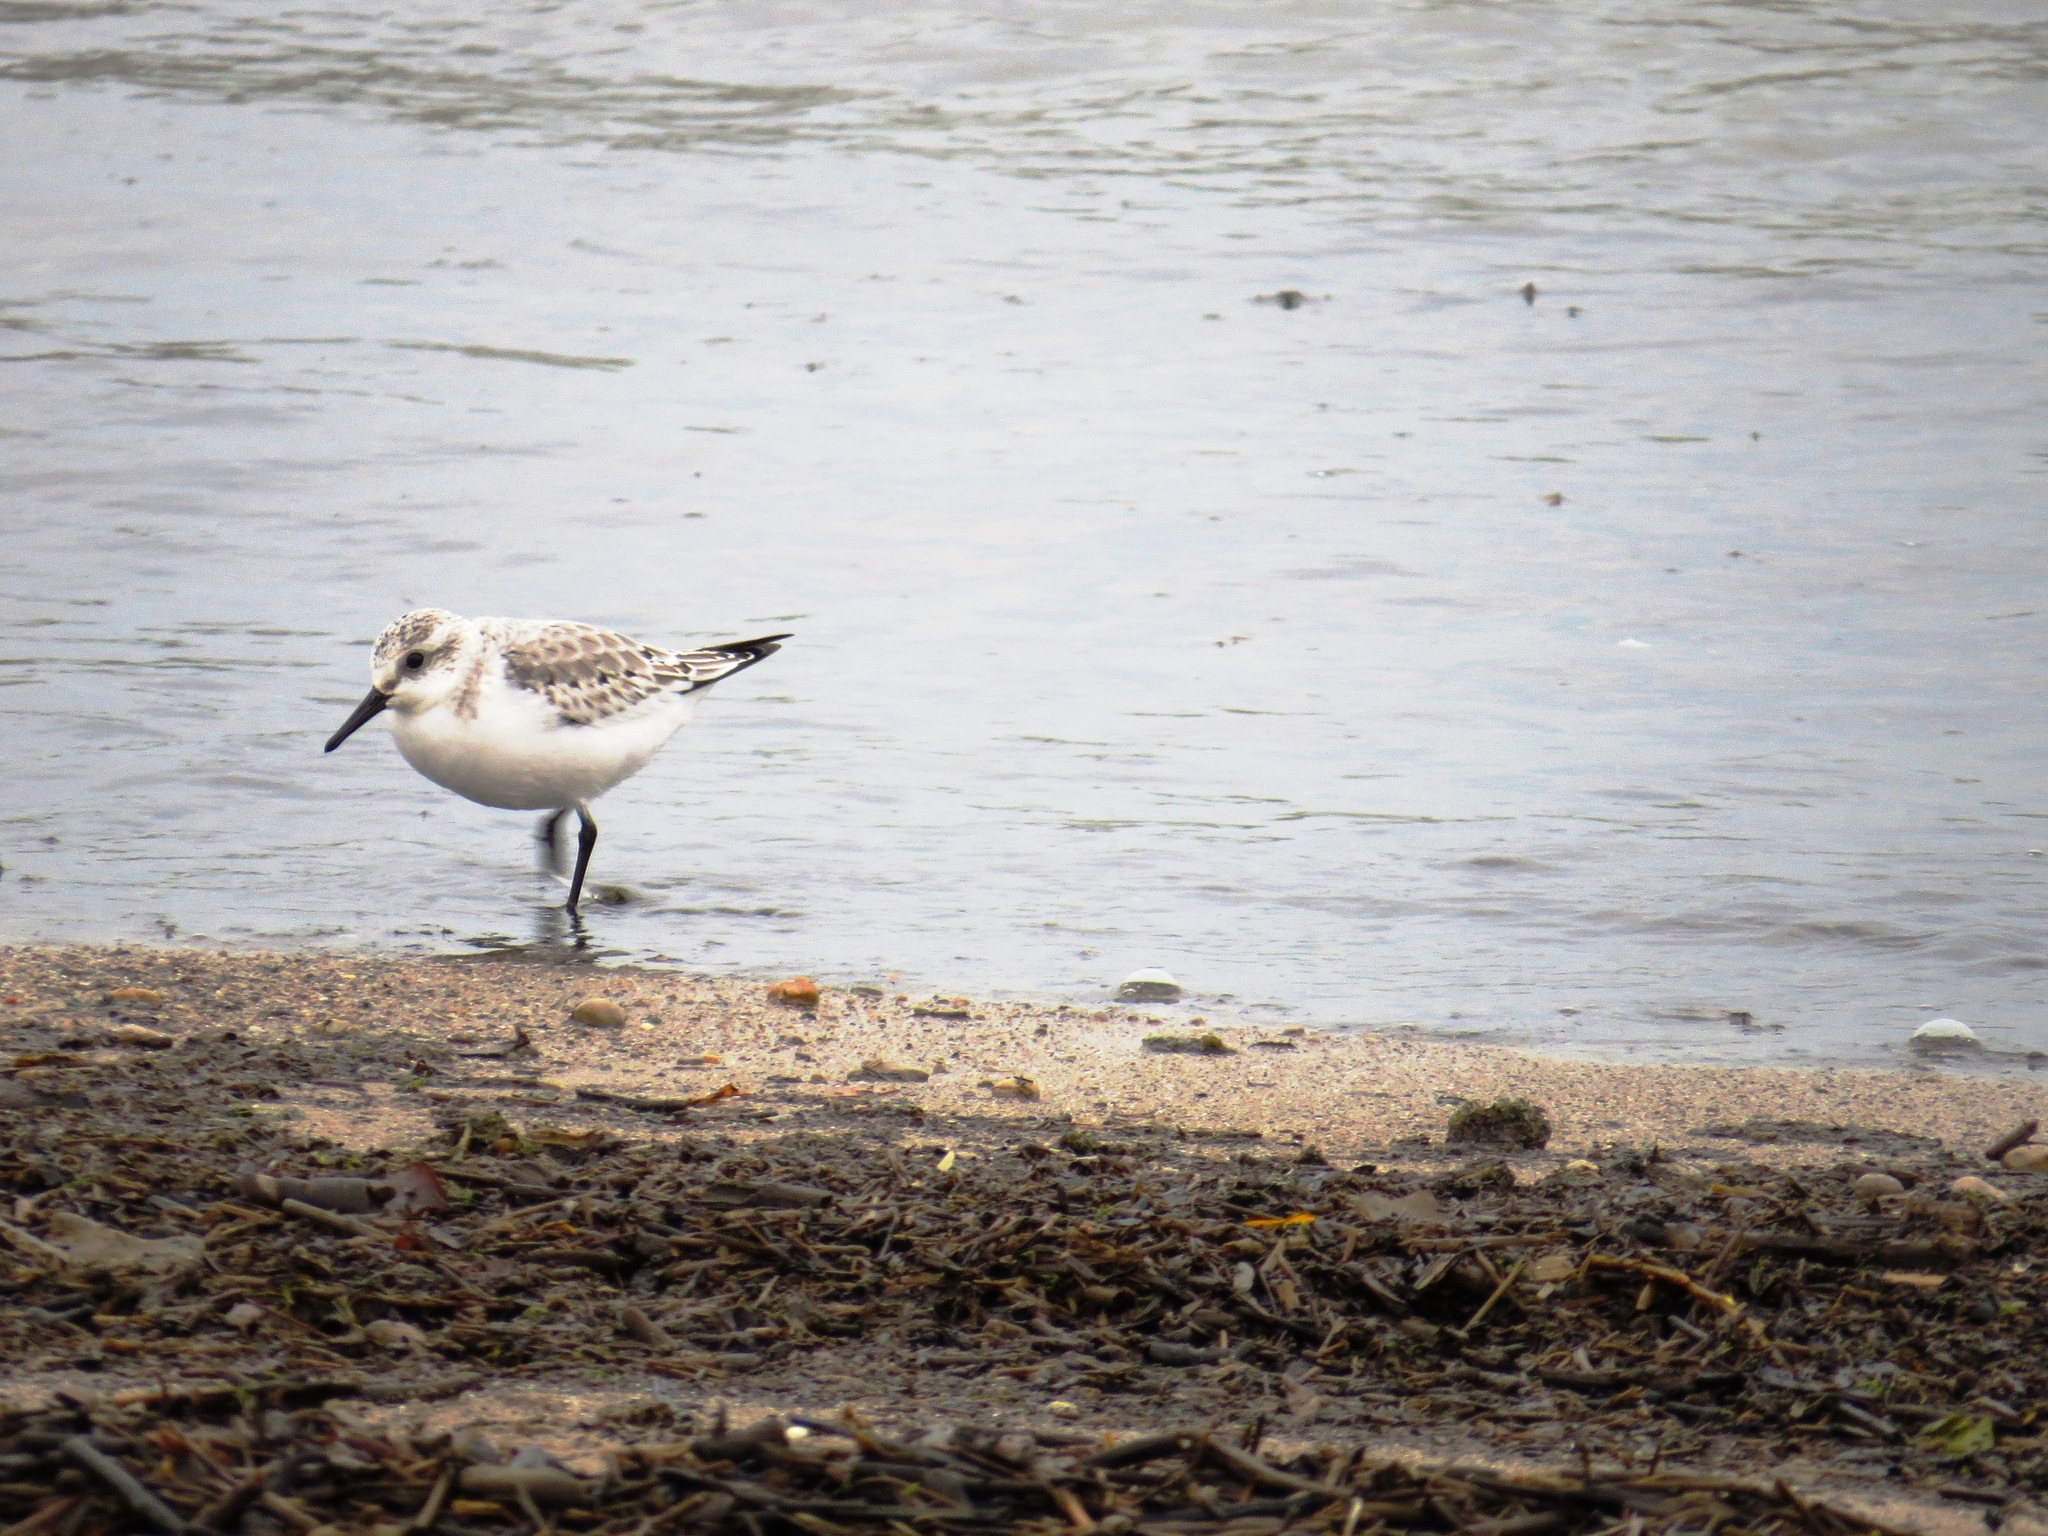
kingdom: Animalia
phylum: Chordata
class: Aves
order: Charadriiformes
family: Scolopacidae
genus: Calidris
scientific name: Calidris alba
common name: Sanderling
